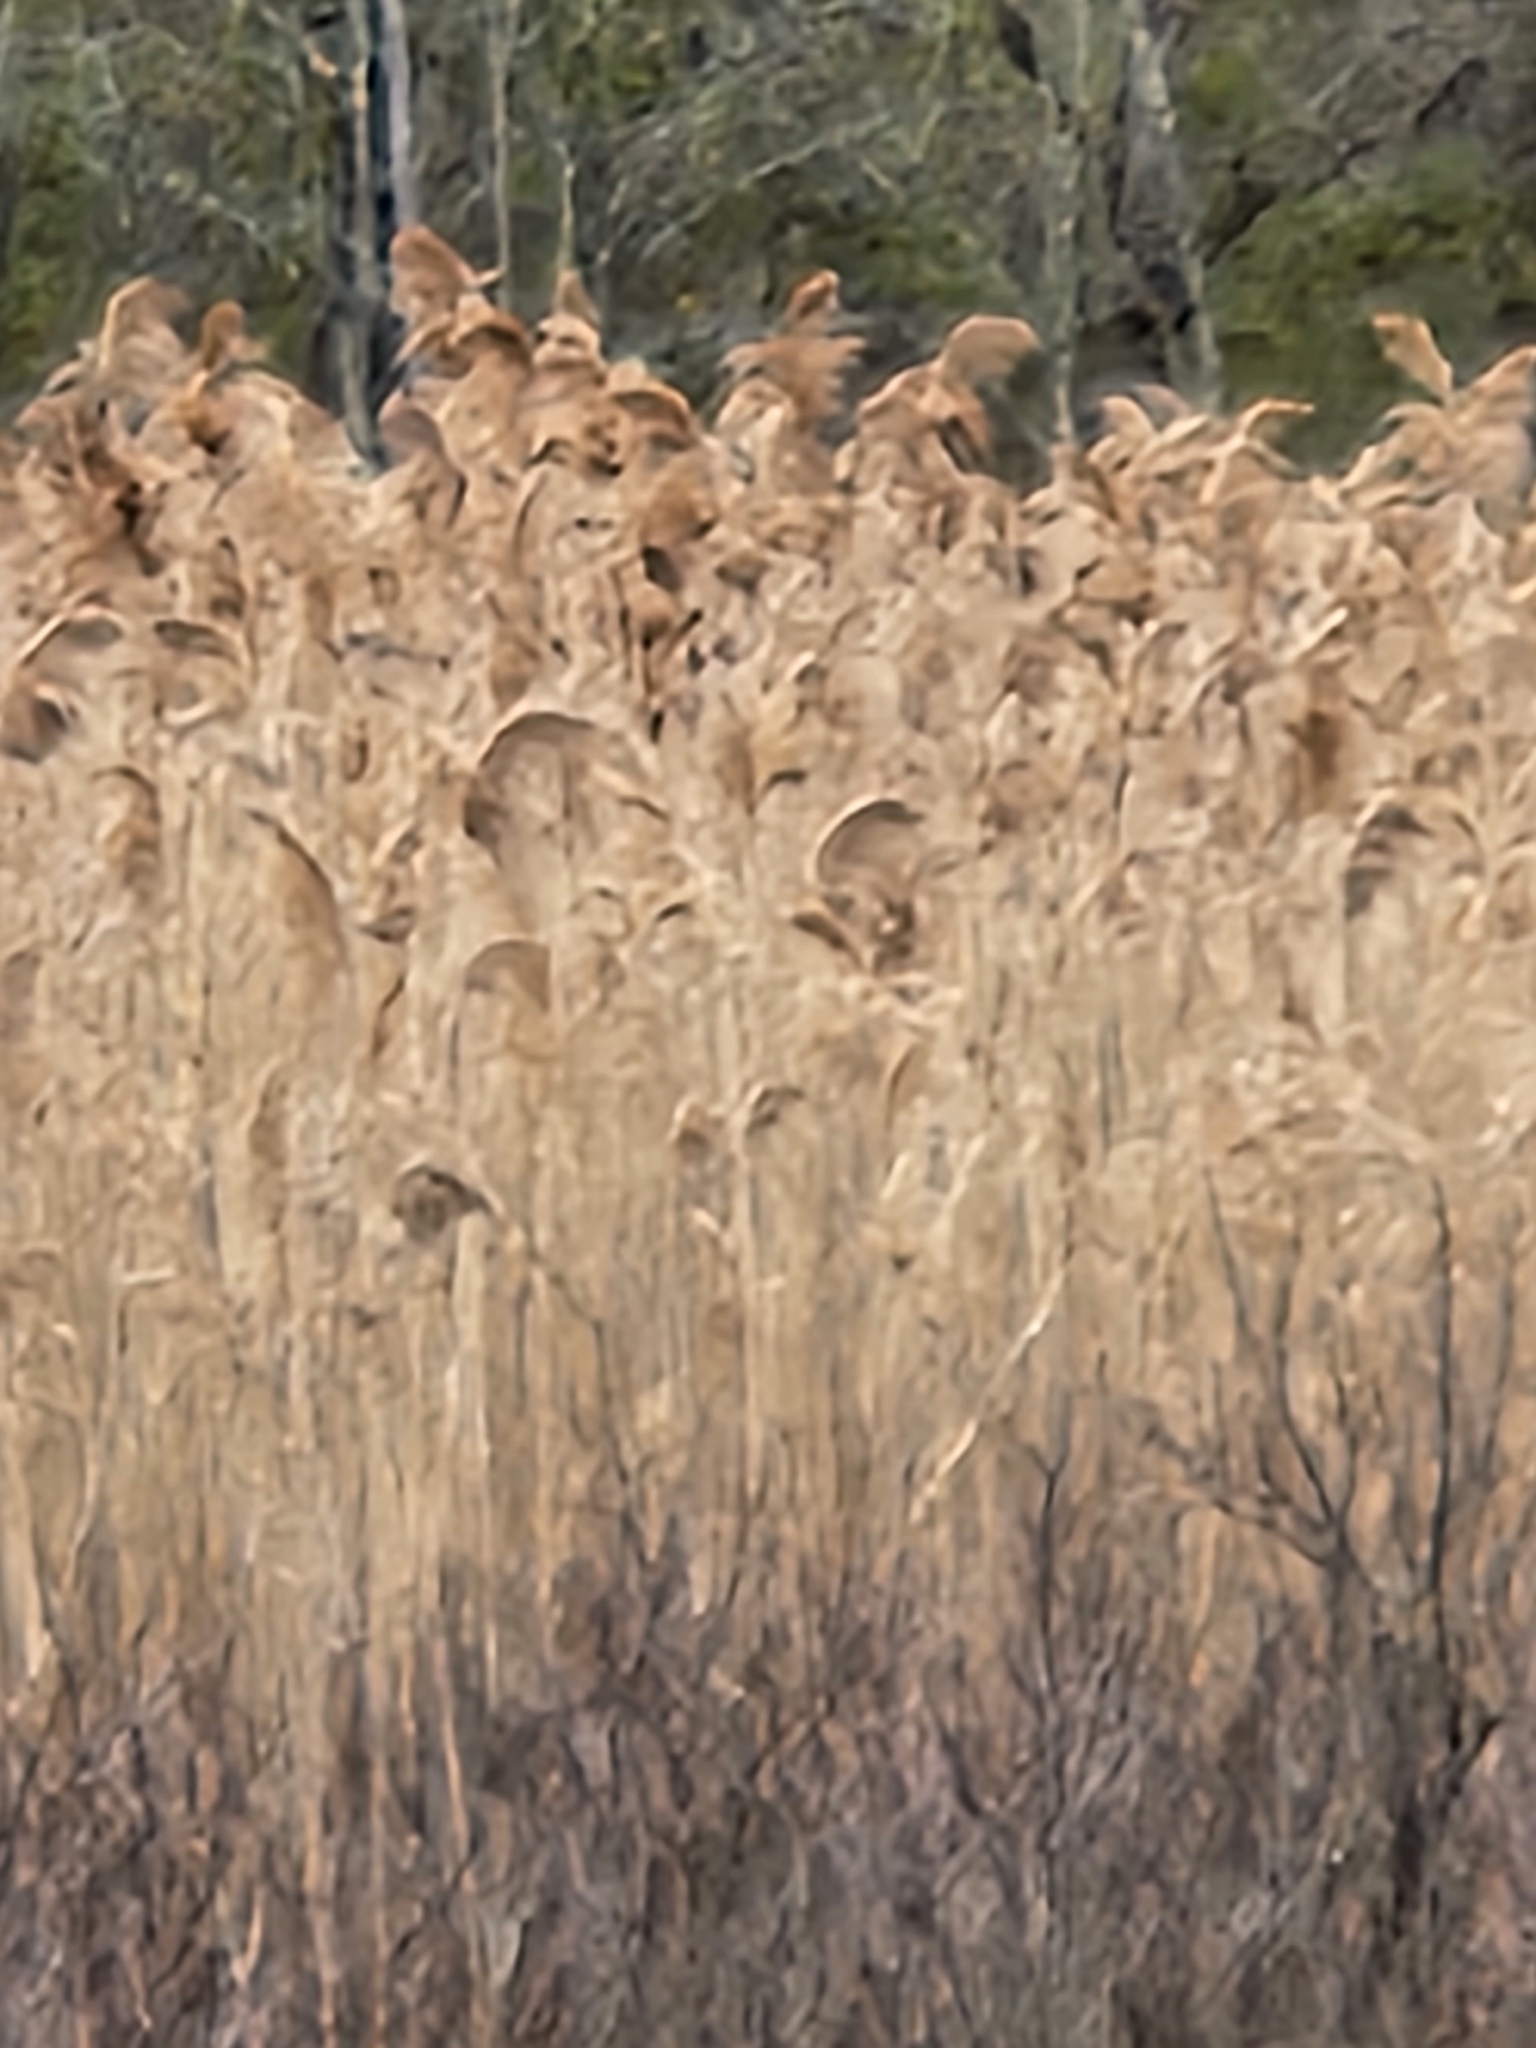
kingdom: Plantae
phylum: Tracheophyta
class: Liliopsida
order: Poales
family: Poaceae
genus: Phragmites
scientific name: Phragmites australis
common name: Common reed
